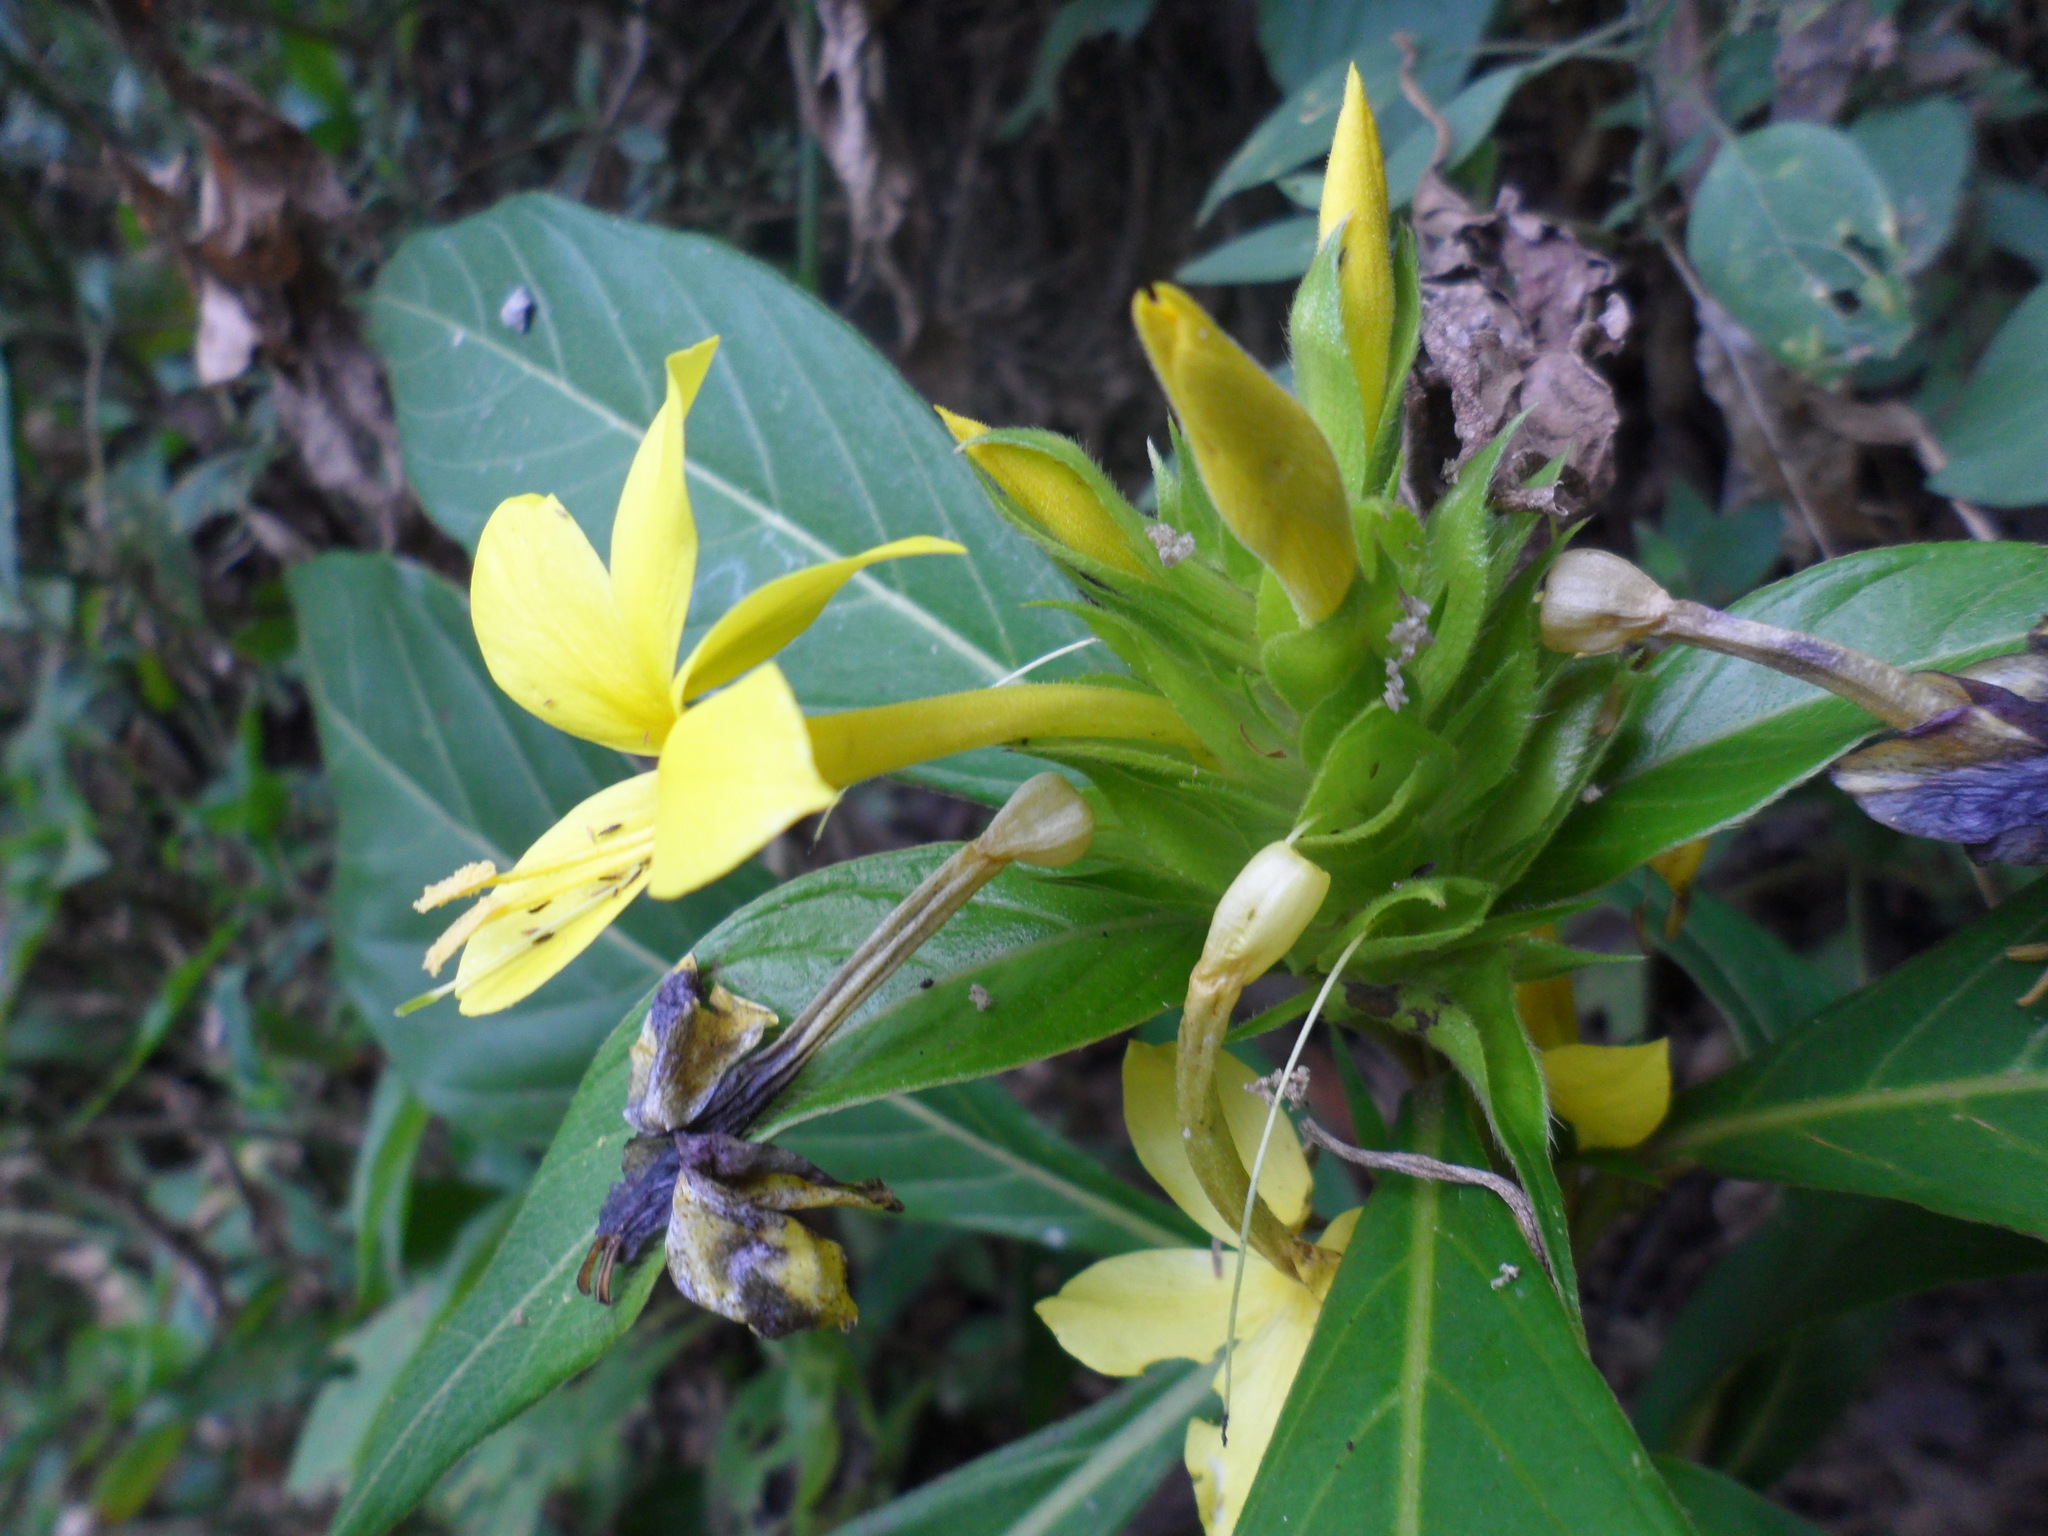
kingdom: Plantae
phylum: Tracheophyta
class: Magnoliopsida
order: Lamiales
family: Acanthaceae
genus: Barleria
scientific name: Barleria oenotheroides
